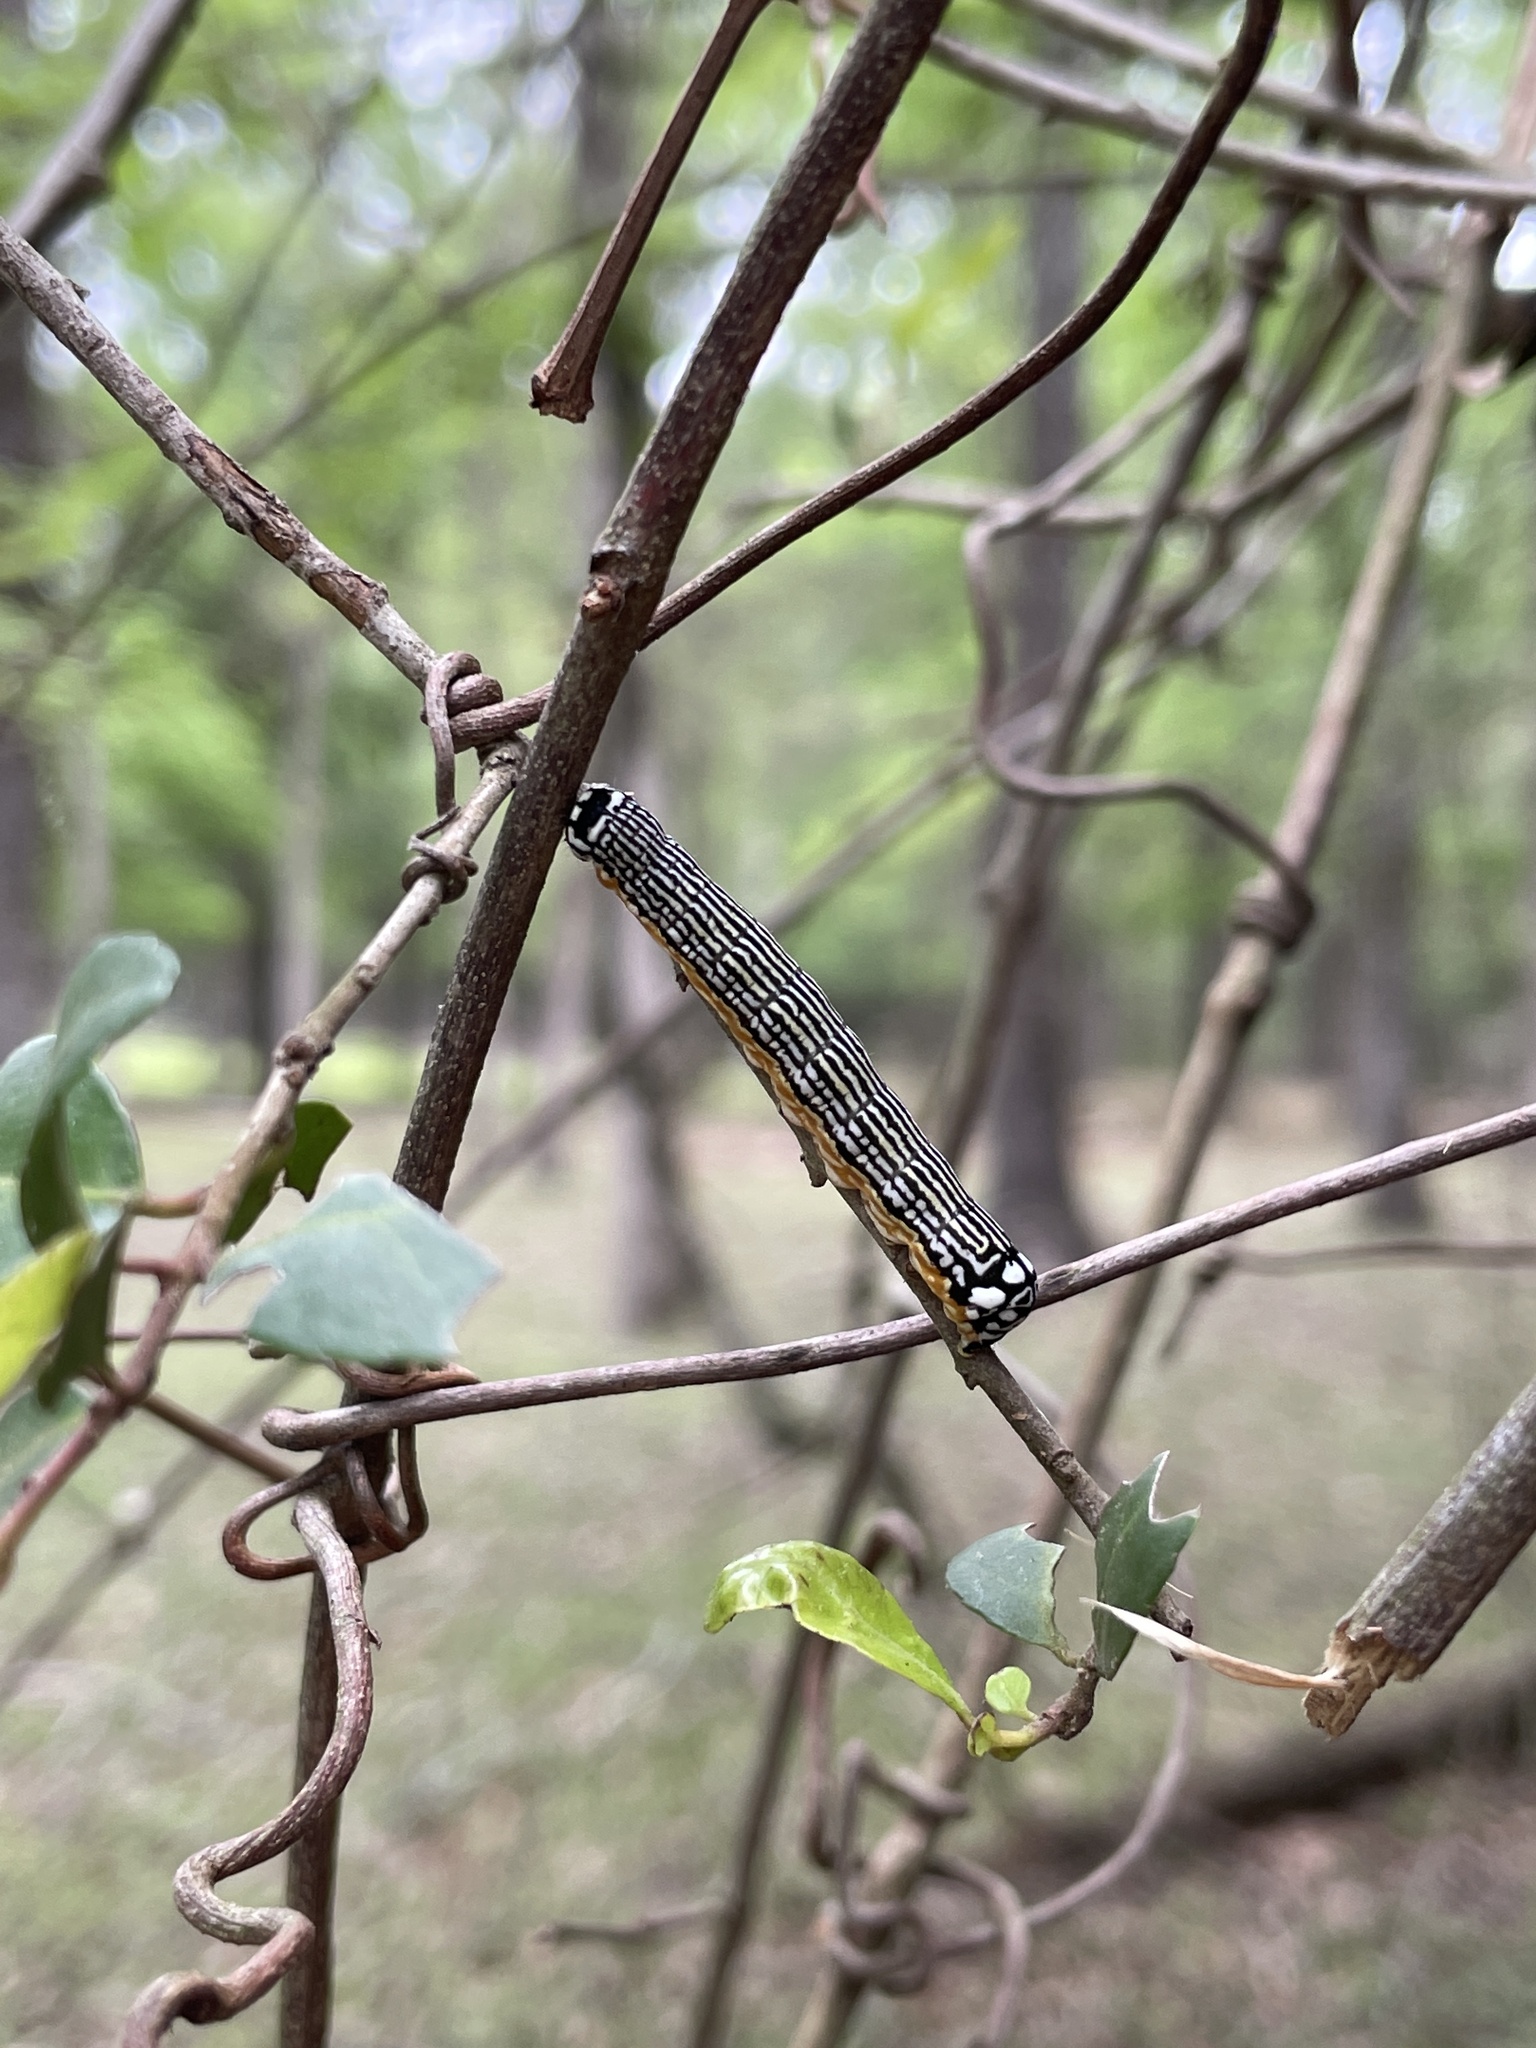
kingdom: Animalia
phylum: Arthropoda
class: Insecta
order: Lepidoptera
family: Noctuidae
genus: Phosphila
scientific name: Phosphila turbulenta
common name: Turbulent phosphila moth
